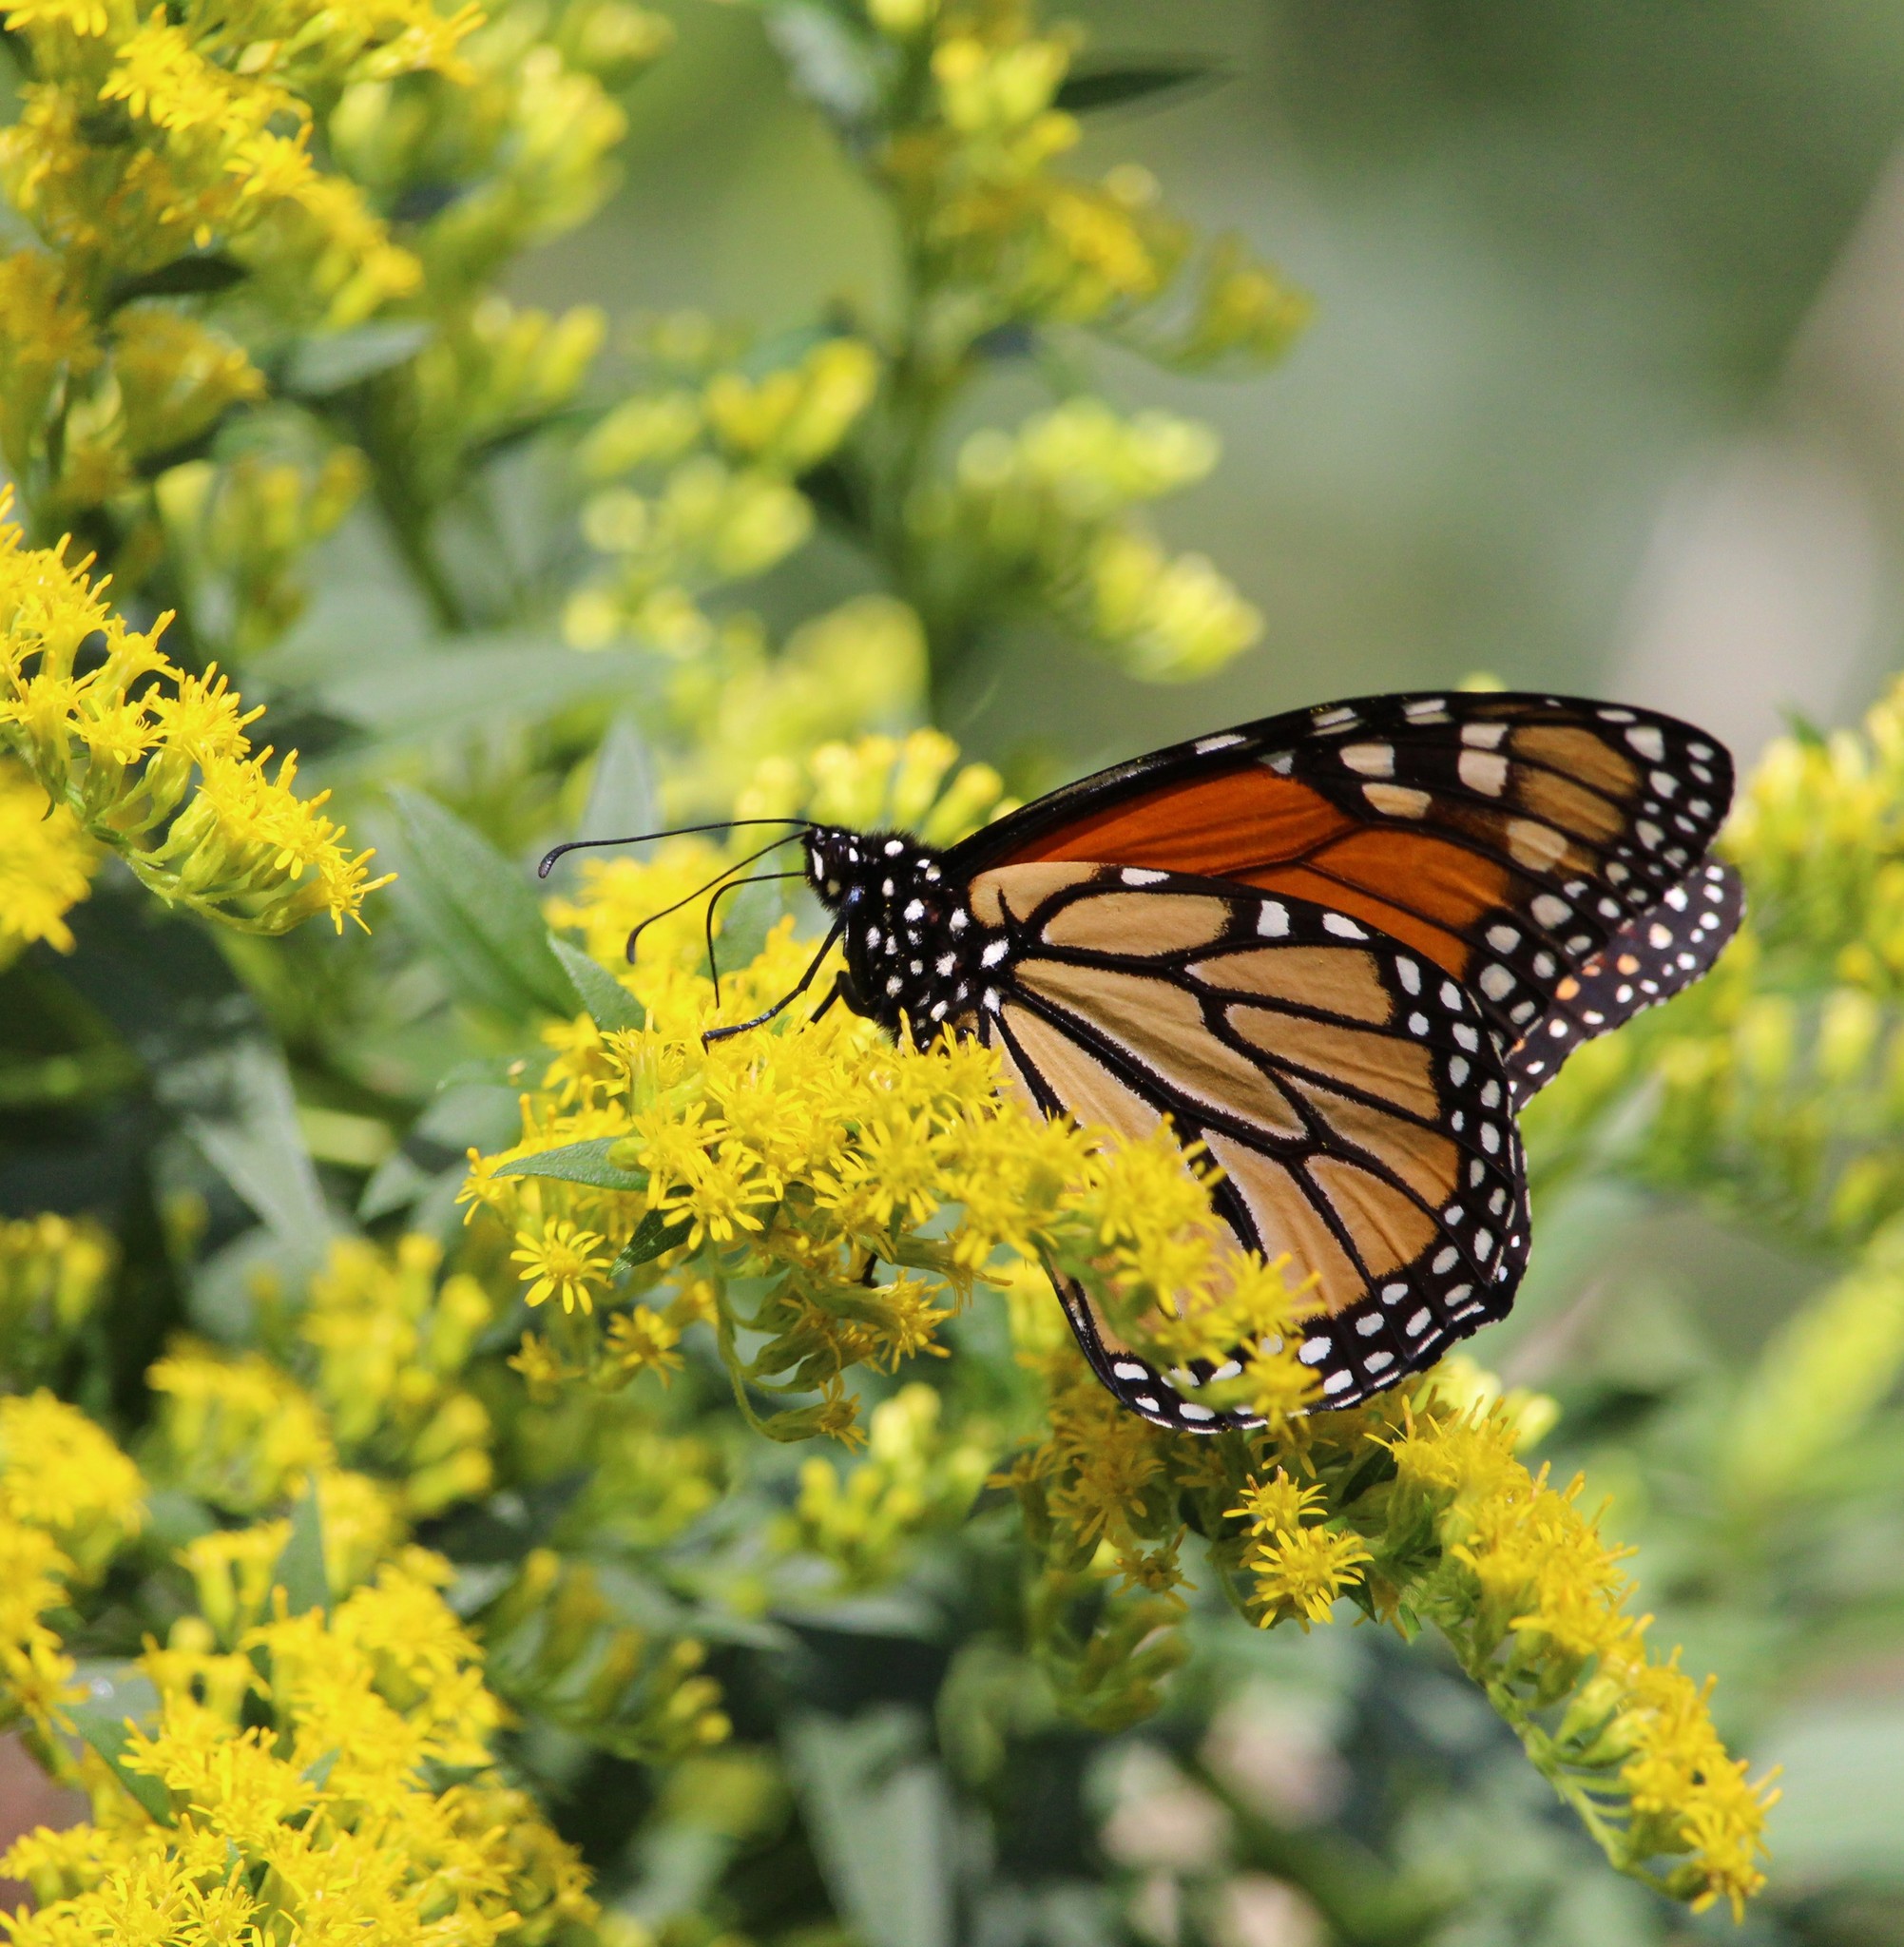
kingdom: Animalia
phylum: Arthropoda
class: Insecta
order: Lepidoptera
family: Nymphalidae
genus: Danaus
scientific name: Danaus plexippus
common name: Monarch
